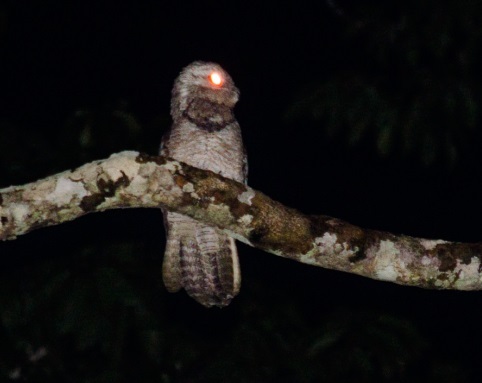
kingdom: Animalia
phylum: Chordata
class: Aves
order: Nyctibiiformes
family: Nyctibiidae
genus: Nyctibius
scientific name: Nyctibius grandis
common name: Great potoo
